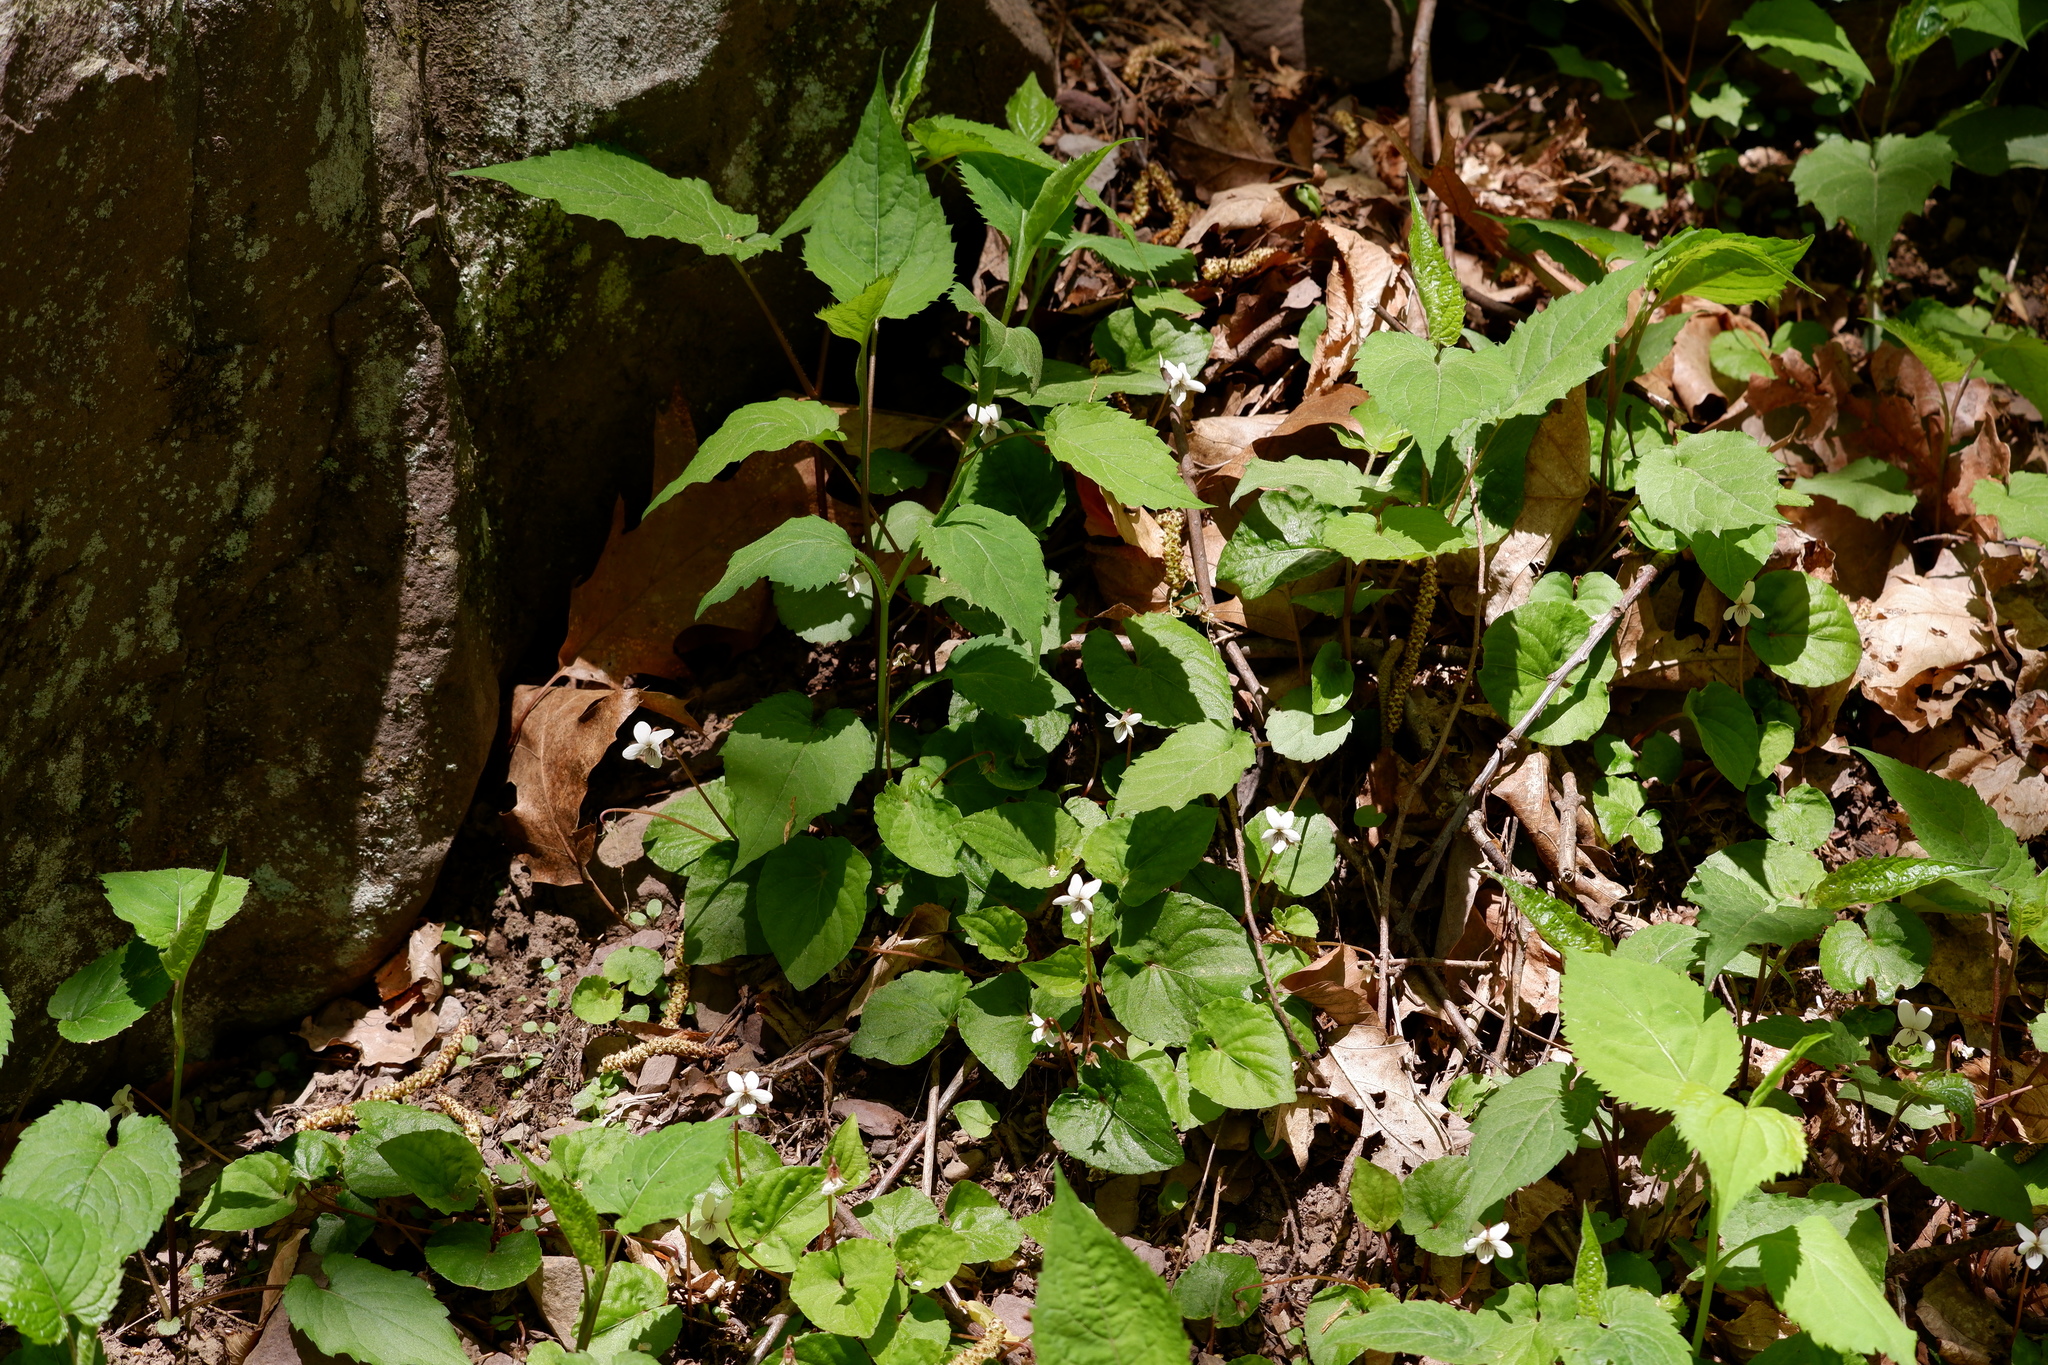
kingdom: Plantae
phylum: Tracheophyta
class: Magnoliopsida
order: Malpighiales
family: Violaceae
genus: Viola
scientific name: Viola blanda
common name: Sweet white violet
